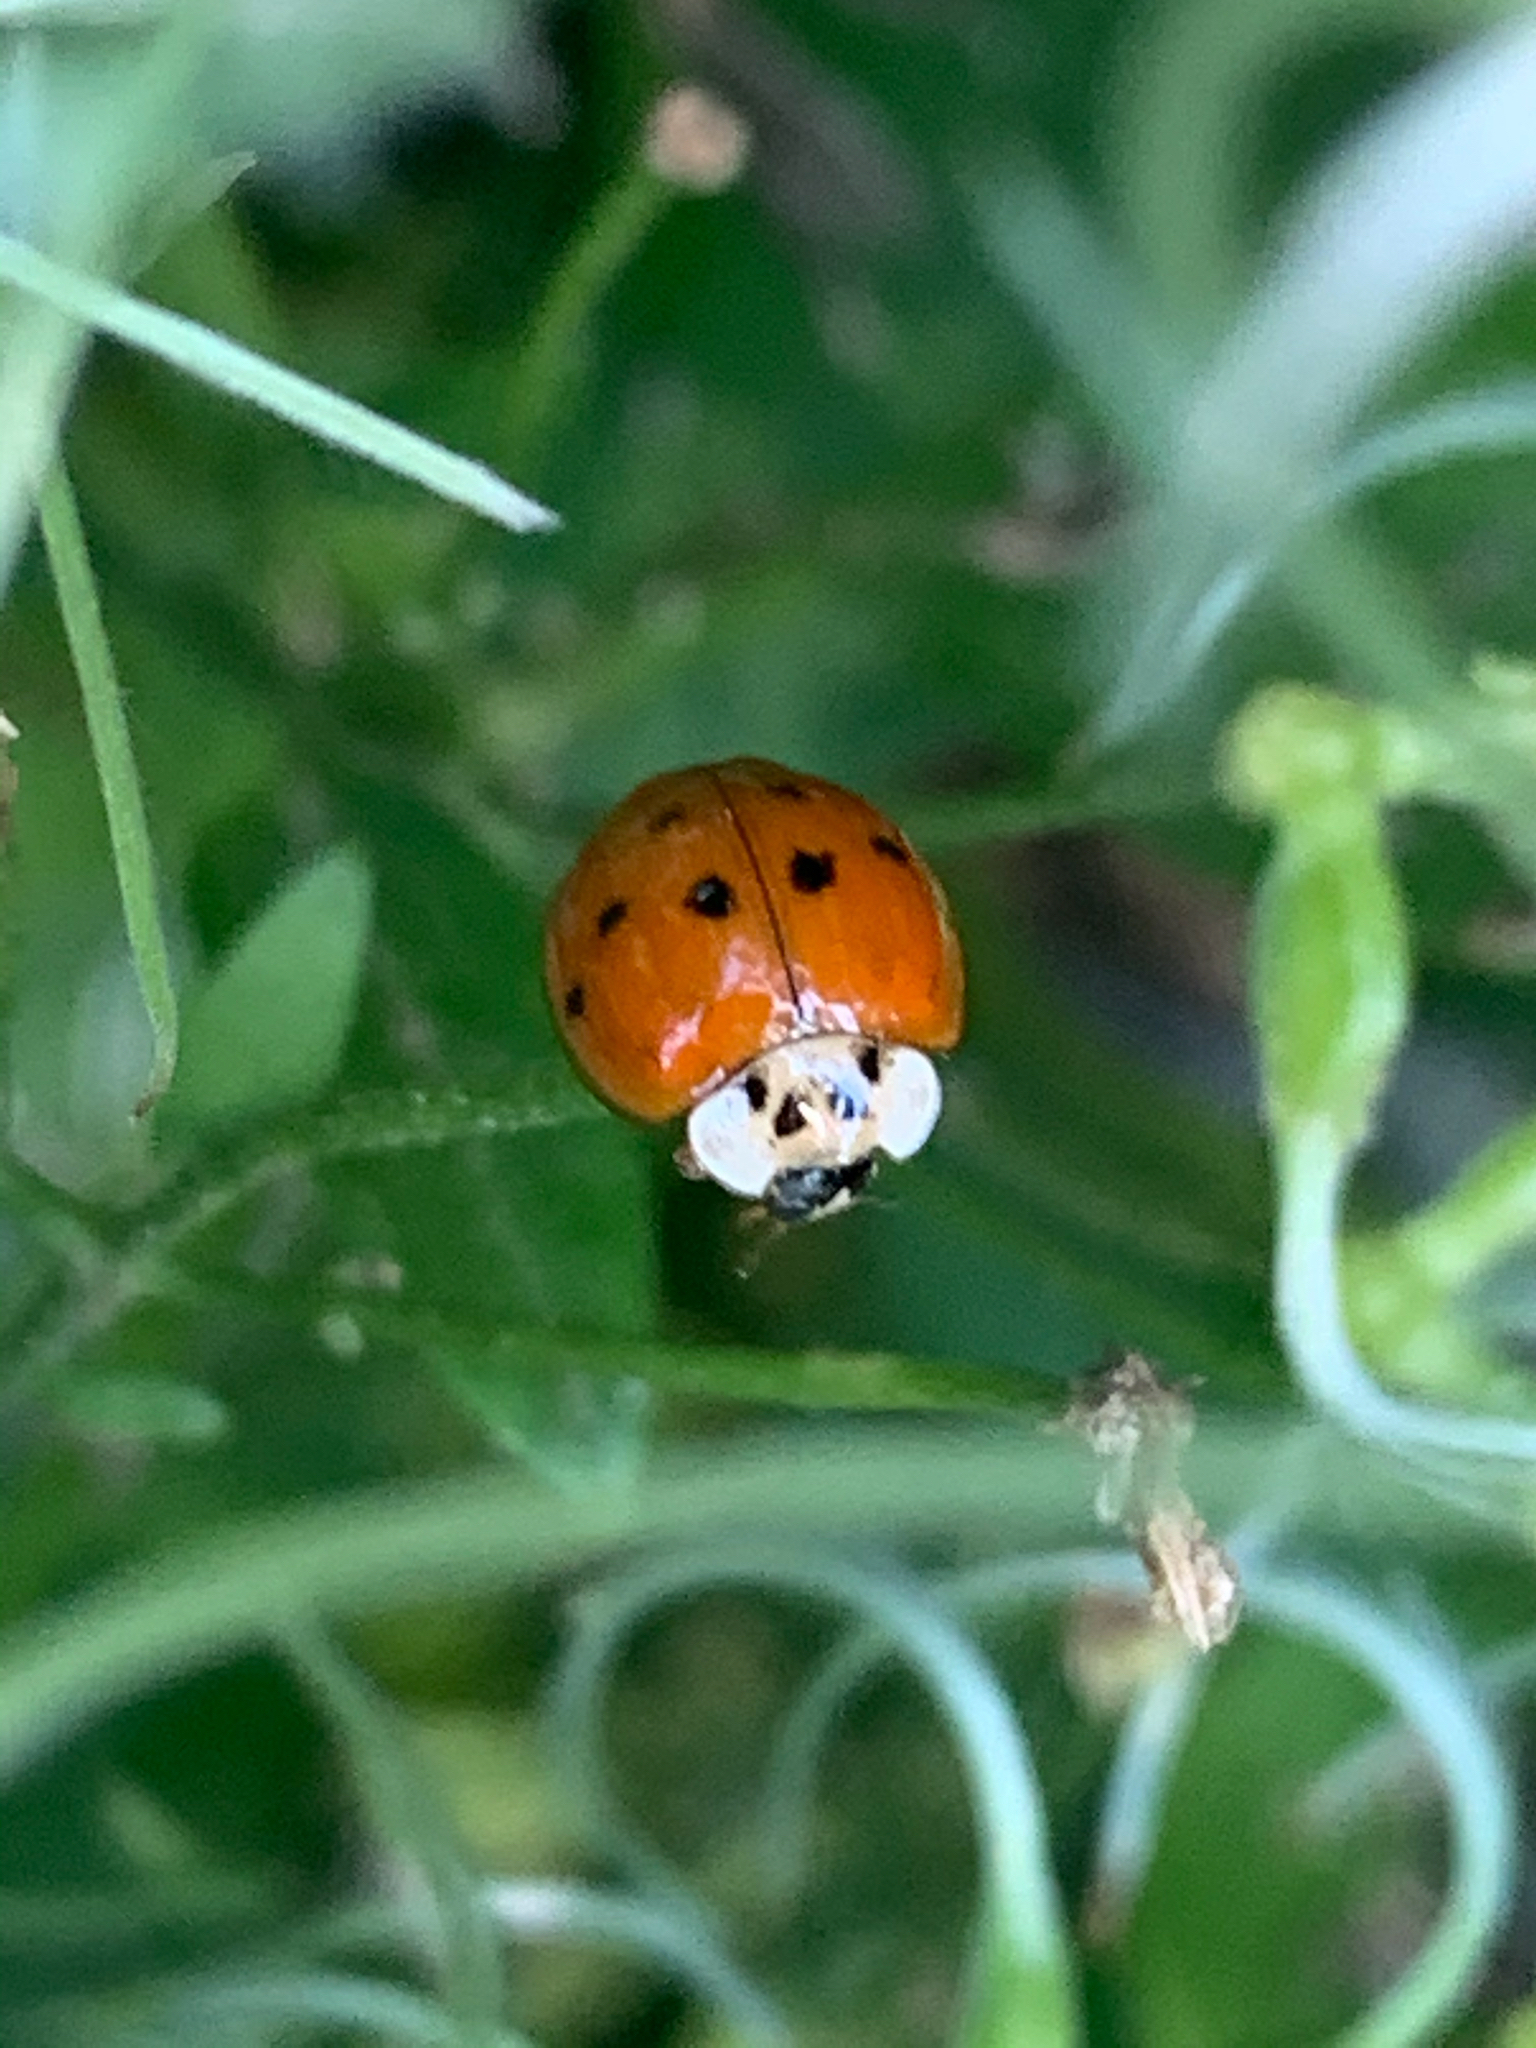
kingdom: Animalia
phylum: Arthropoda
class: Insecta
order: Coleoptera
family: Coccinellidae
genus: Harmonia
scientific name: Harmonia axyridis
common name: Harlequin ladybird
